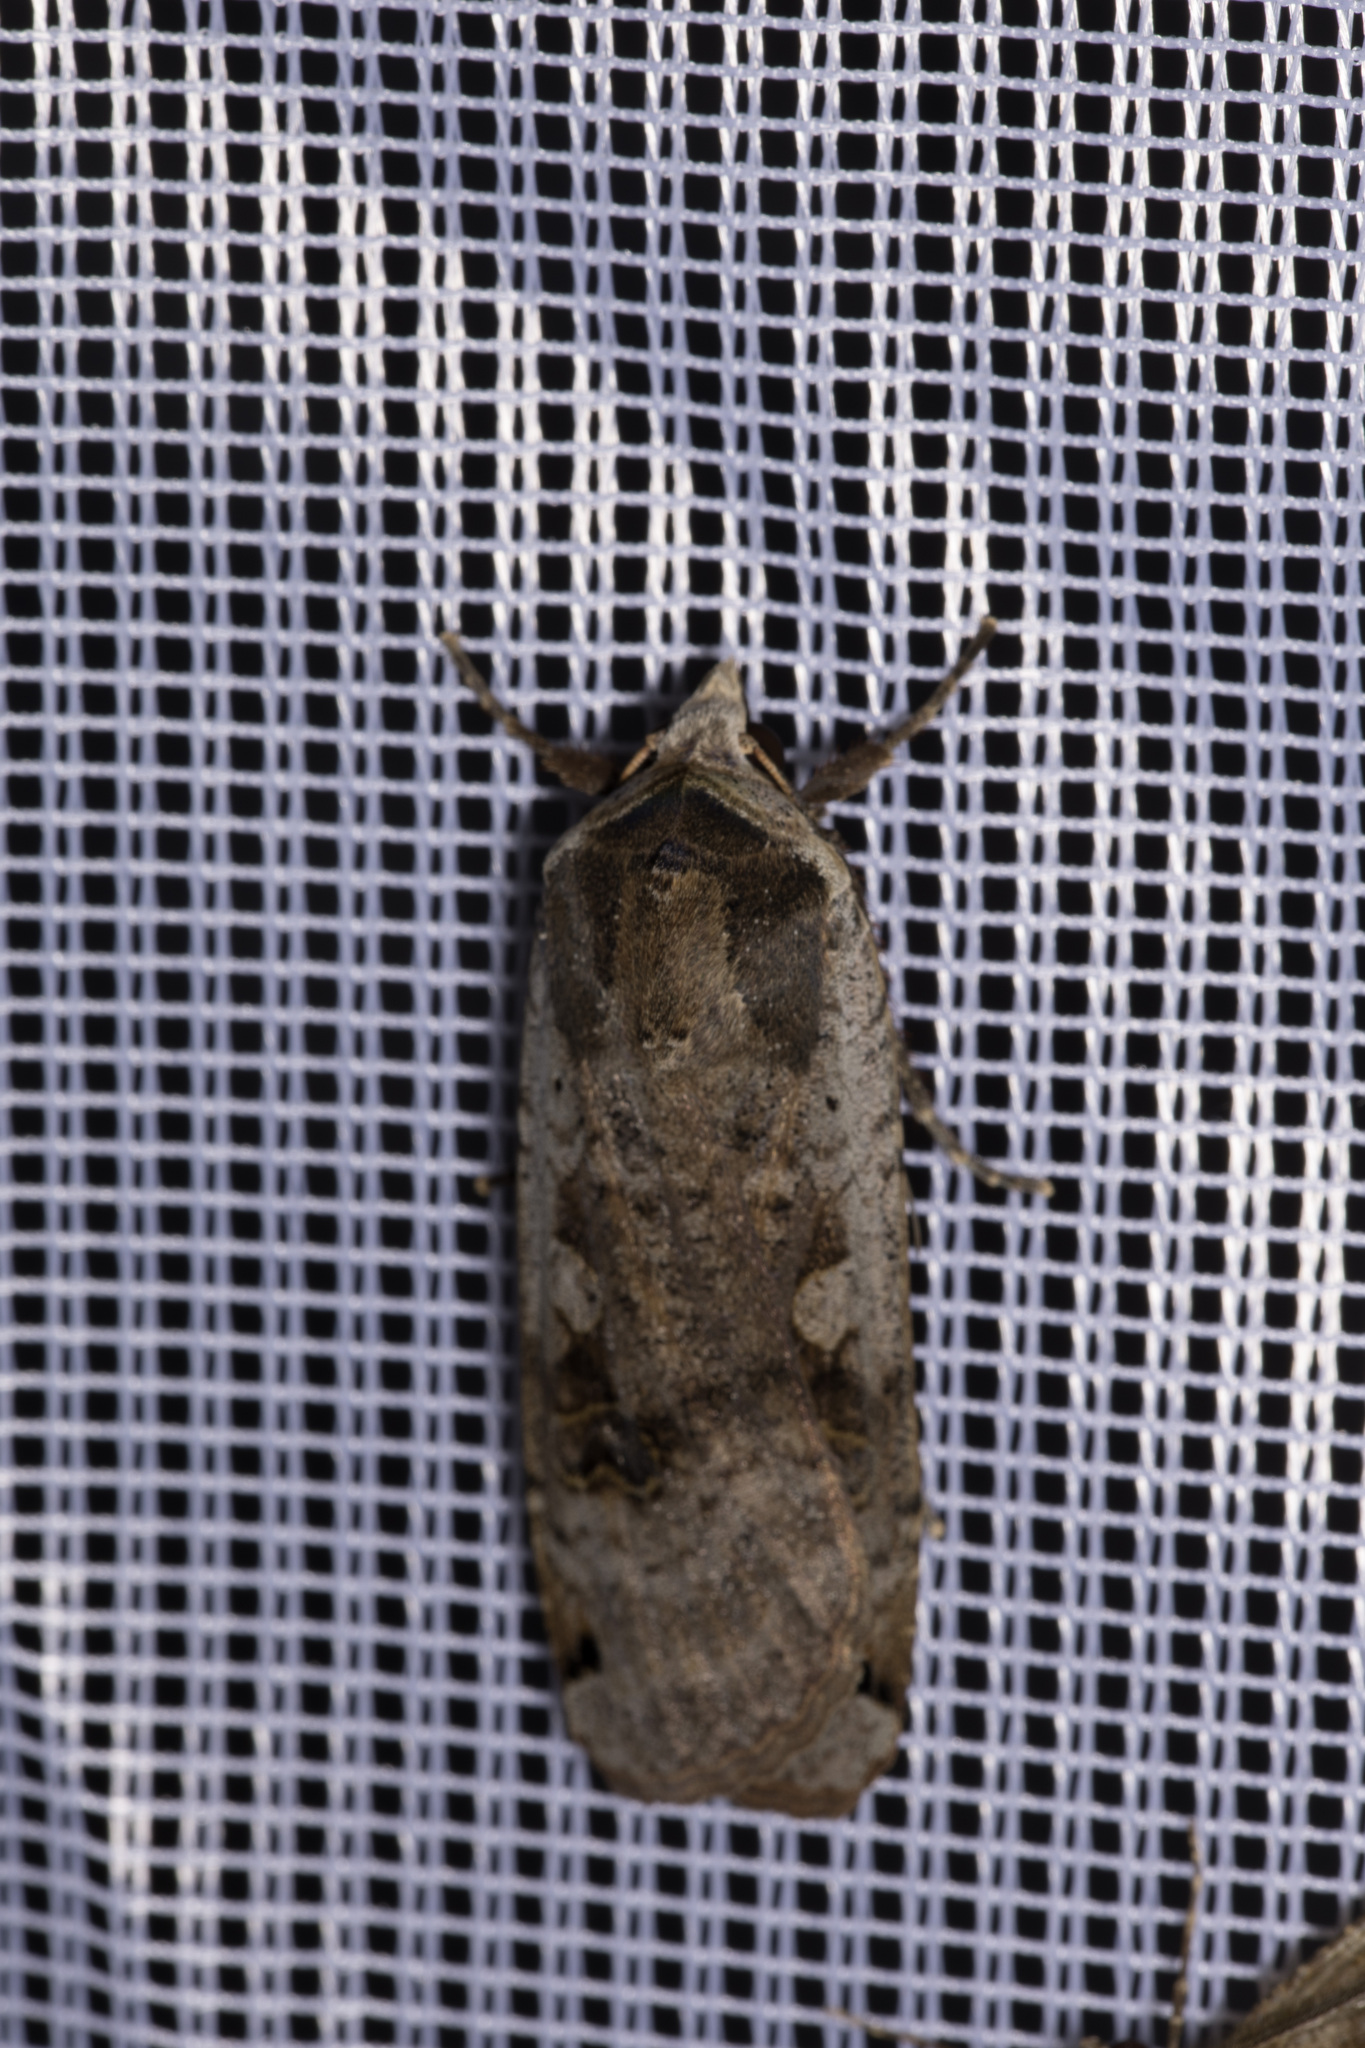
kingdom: Animalia
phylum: Arthropoda
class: Insecta
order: Lepidoptera
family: Noctuidae
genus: Noctua
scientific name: Noctua pronuba
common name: Large yellow underwing
